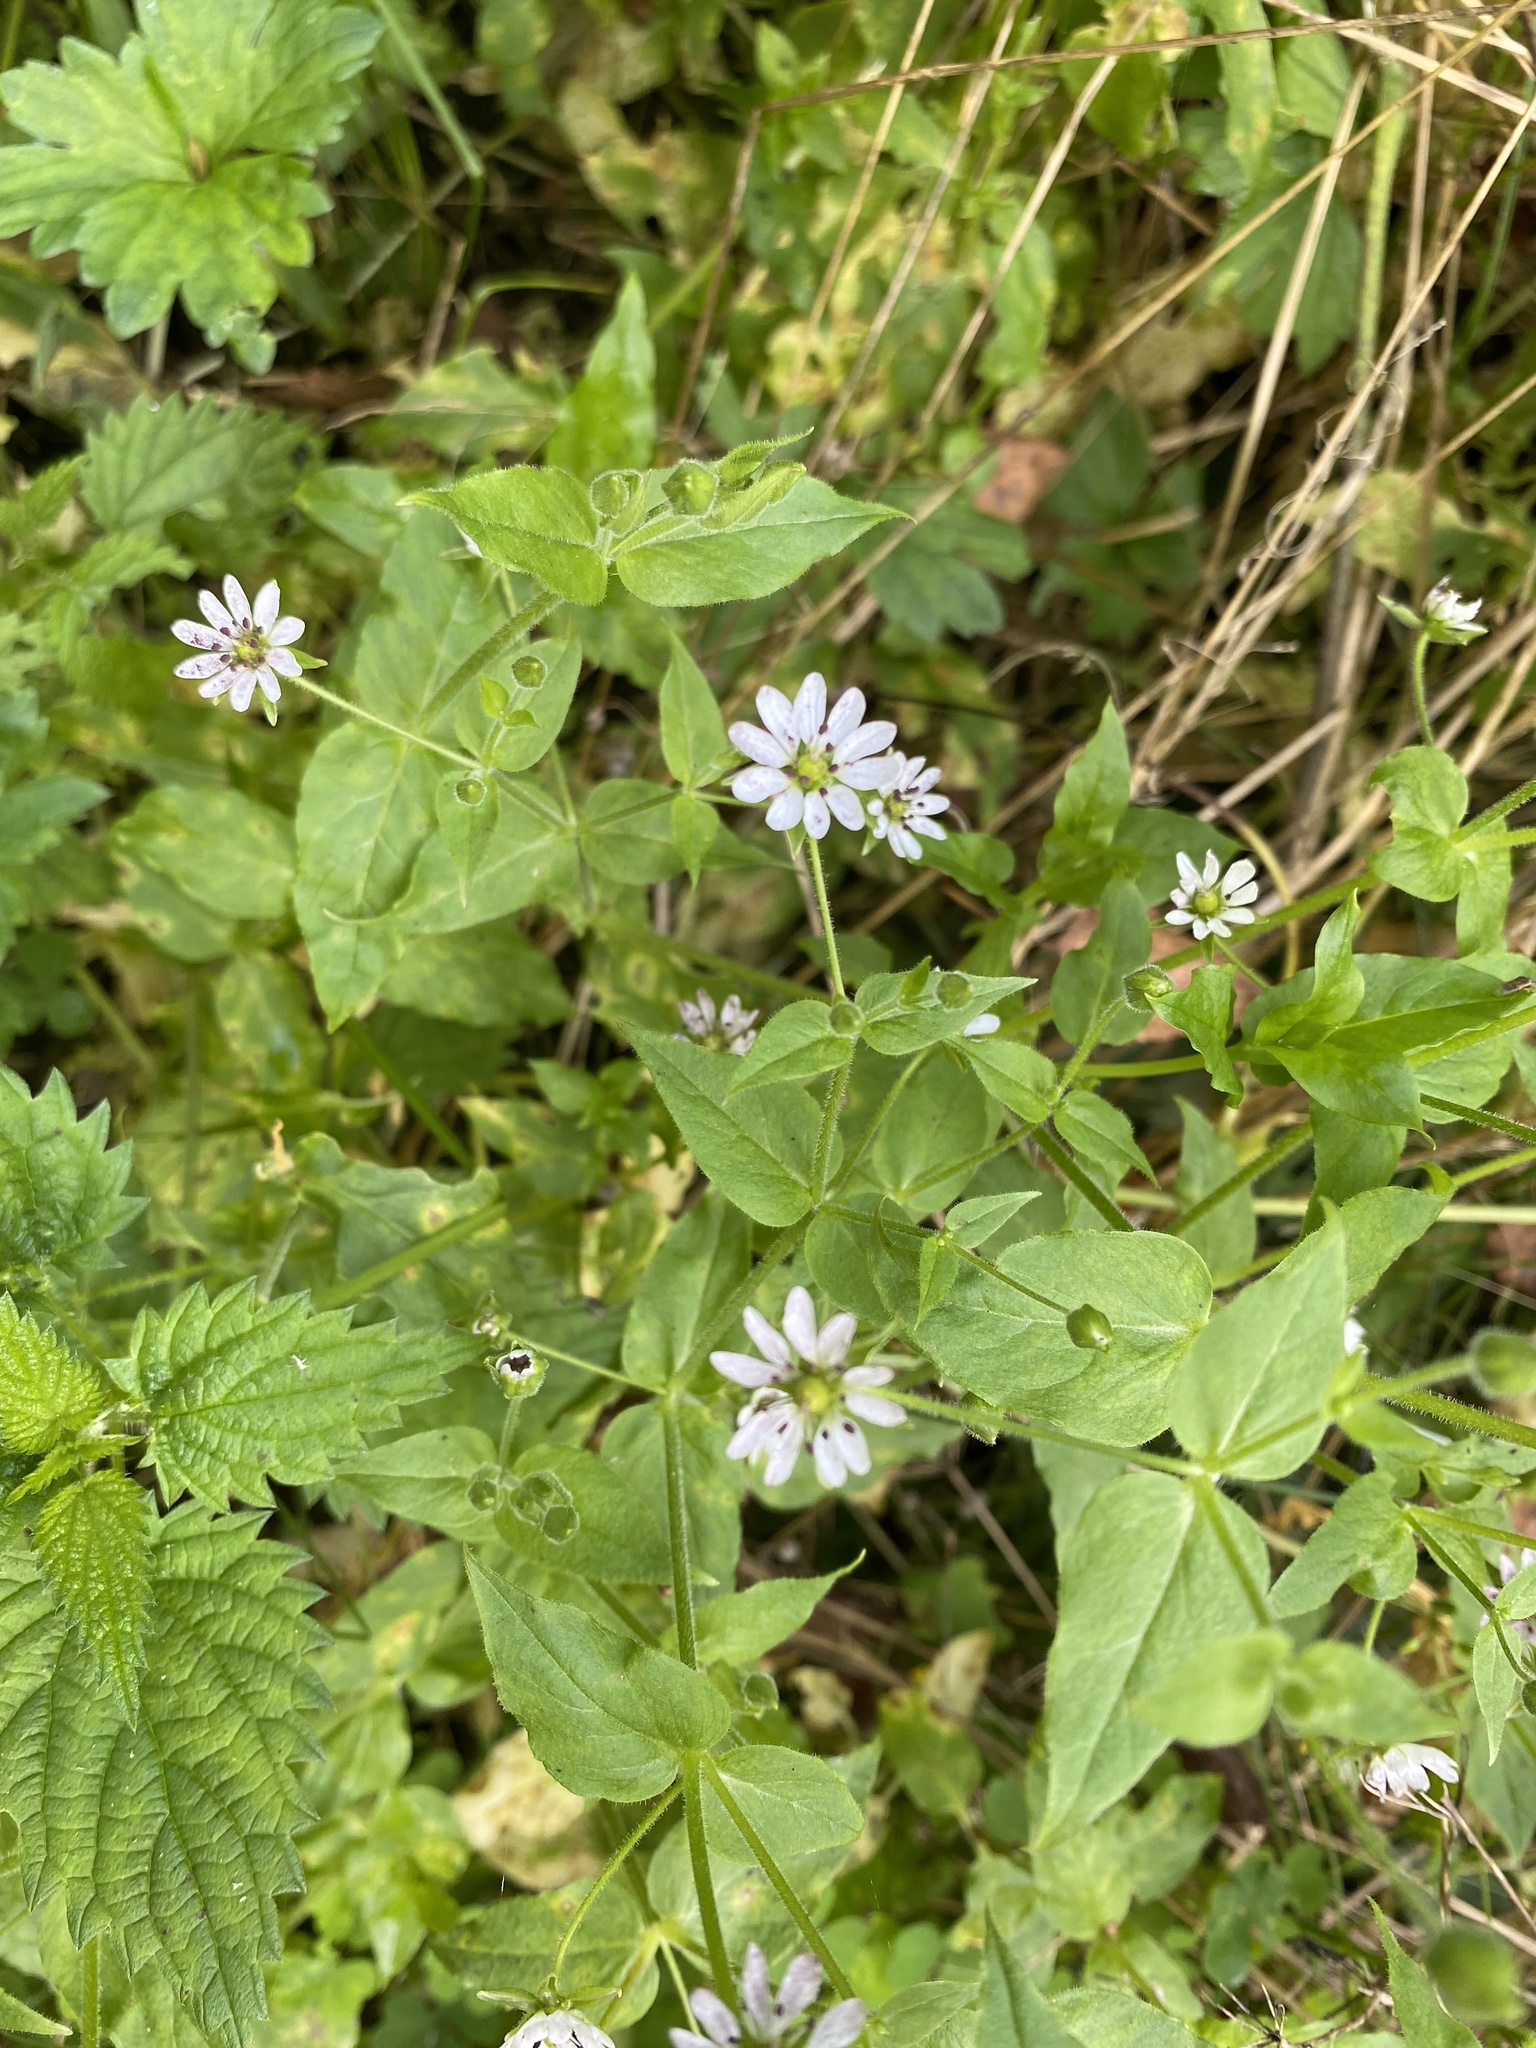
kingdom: Plantae
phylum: Tracheophyta
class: Magnoliopsida
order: Caryophyllales
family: Caryophyllaceae
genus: Stellaria
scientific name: Stellaria aquatica
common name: Water chickweed
